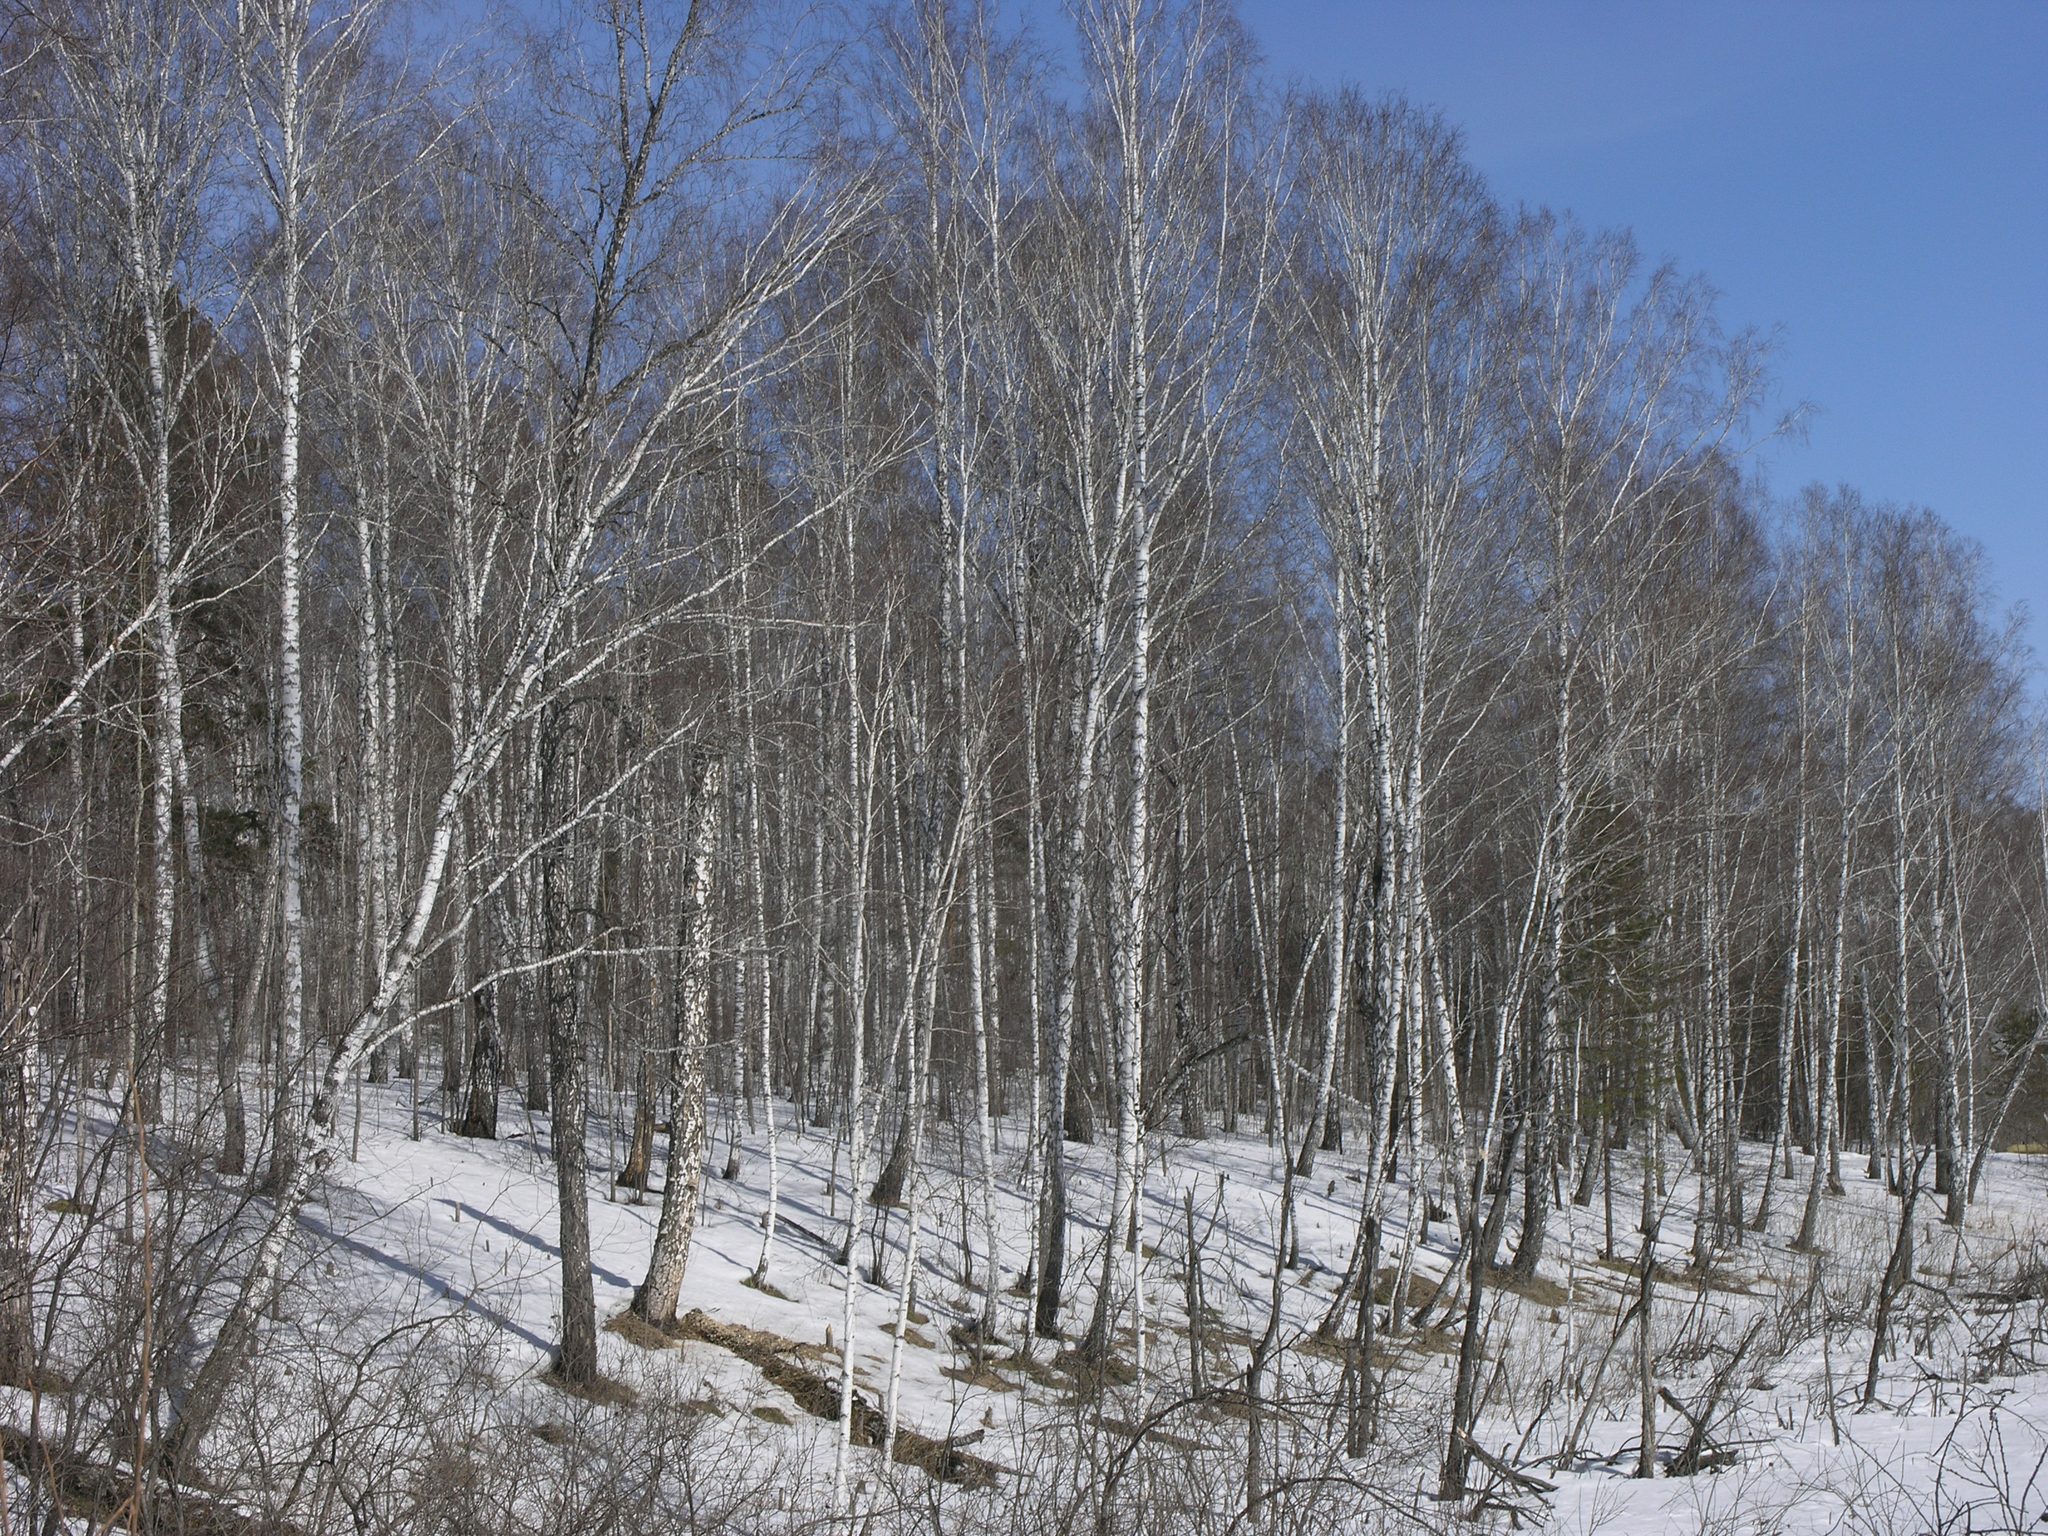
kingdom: Plantae
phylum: Tracheophyta
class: Magnoliopsida
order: Fagales
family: Betulaceae
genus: Betula
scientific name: Betula pendula
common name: Silver birch
